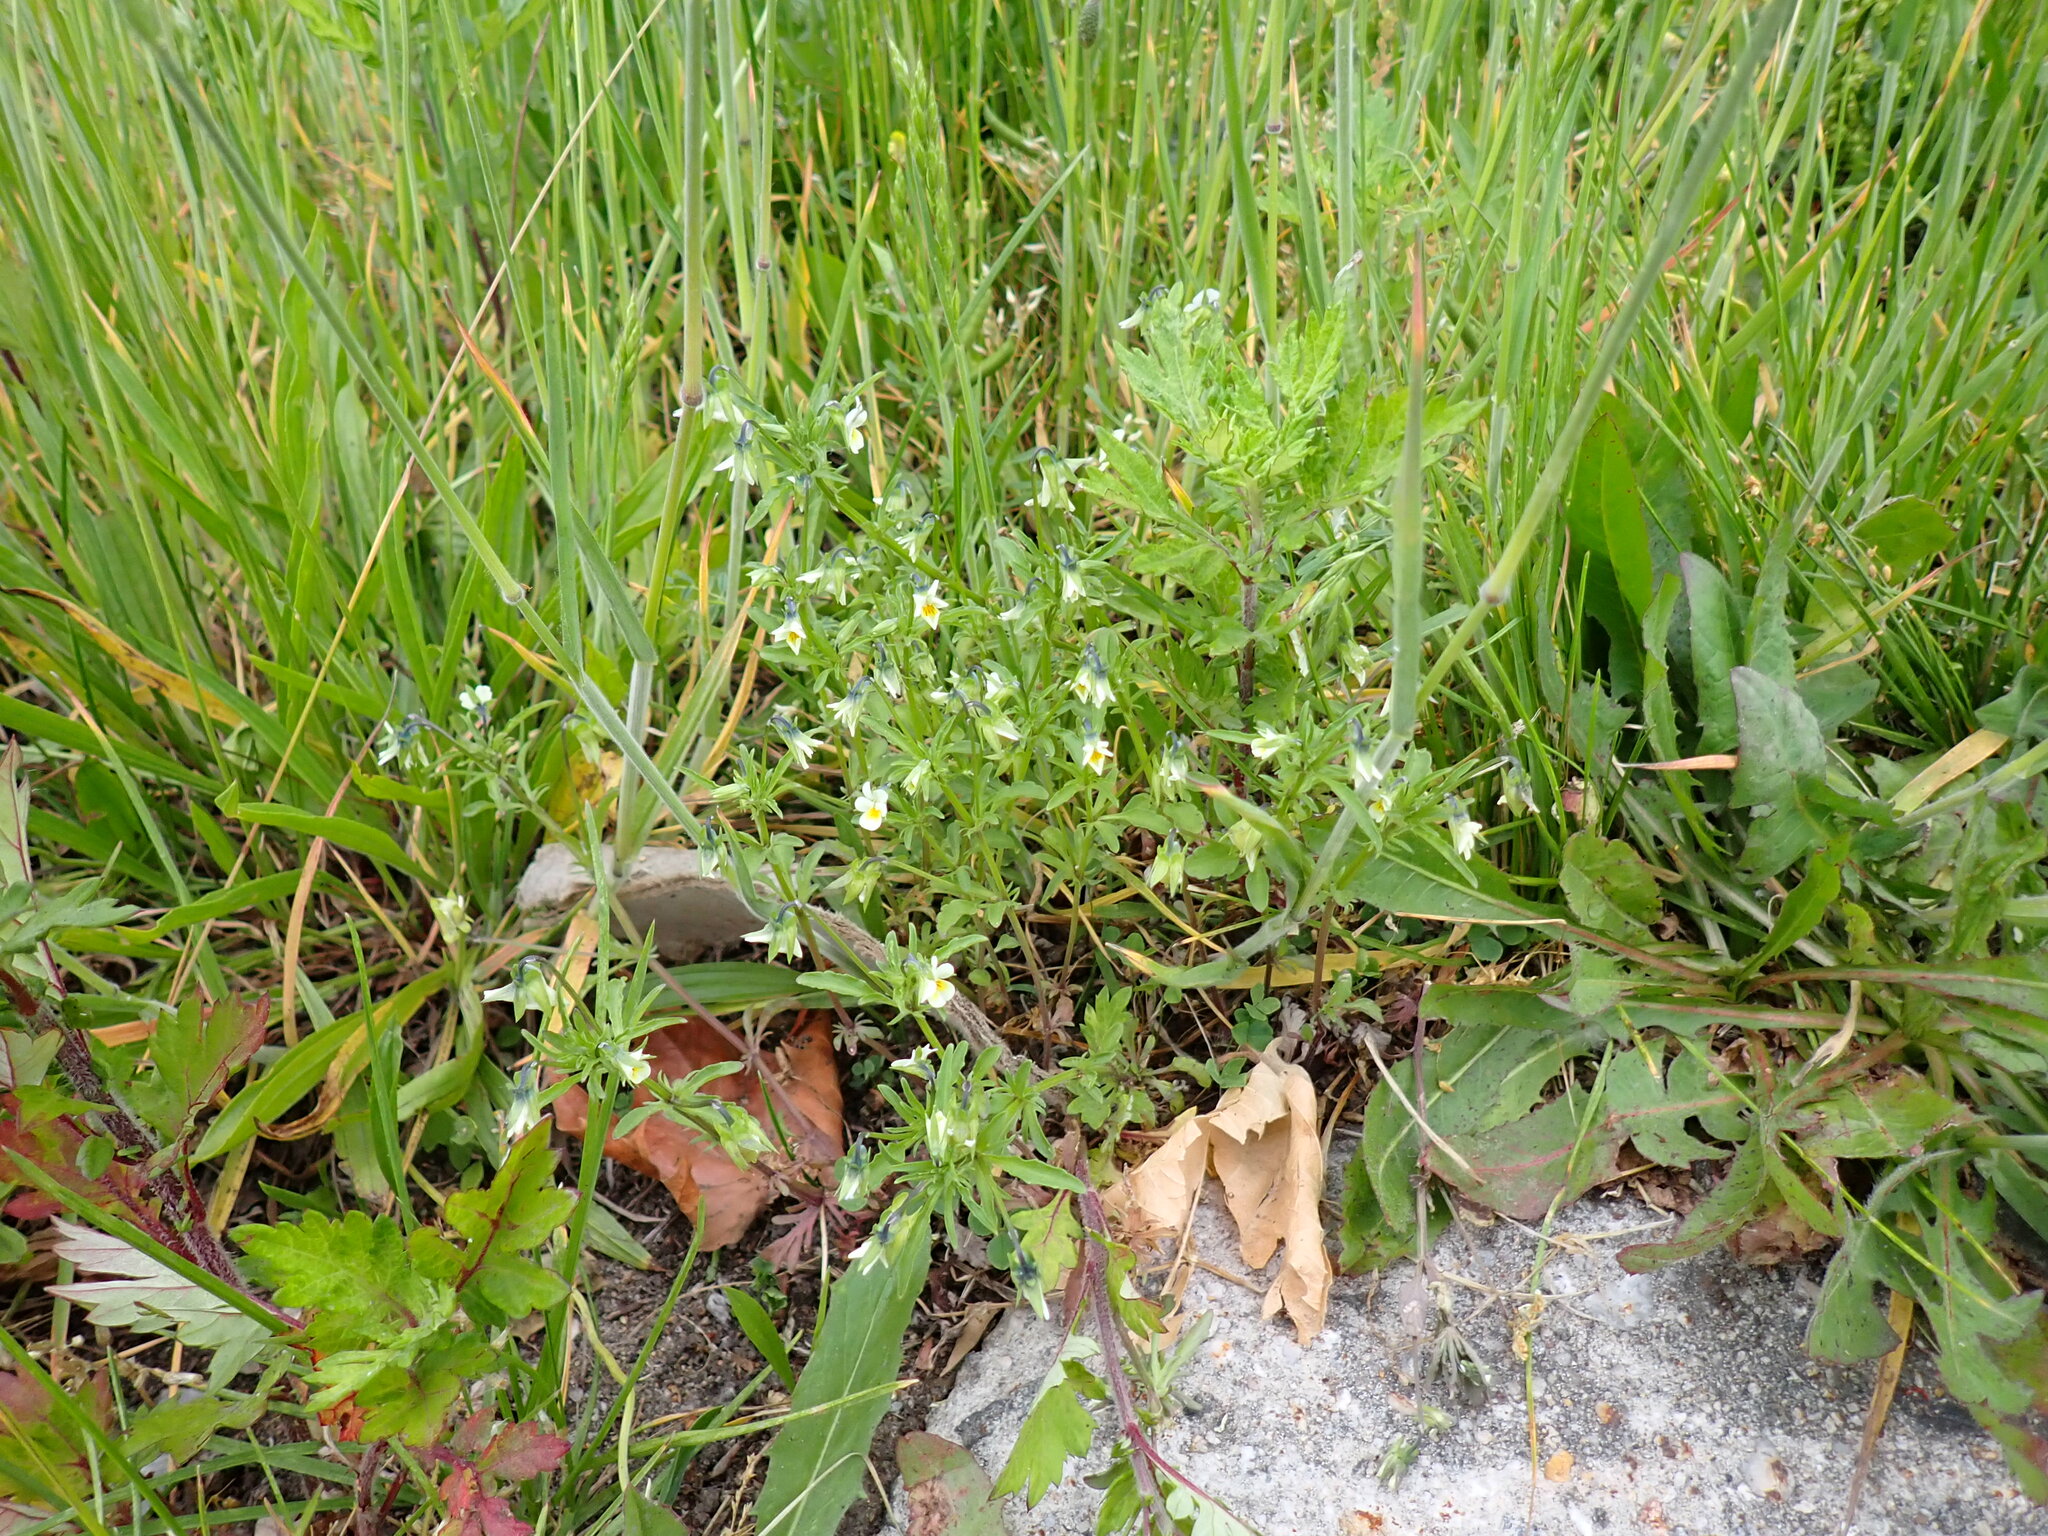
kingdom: Plantae
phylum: Tracheophyta
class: Magnoliopsida
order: Malpighiales
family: Violaceae
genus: Viola
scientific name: Viola arvensis
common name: Field pansy
